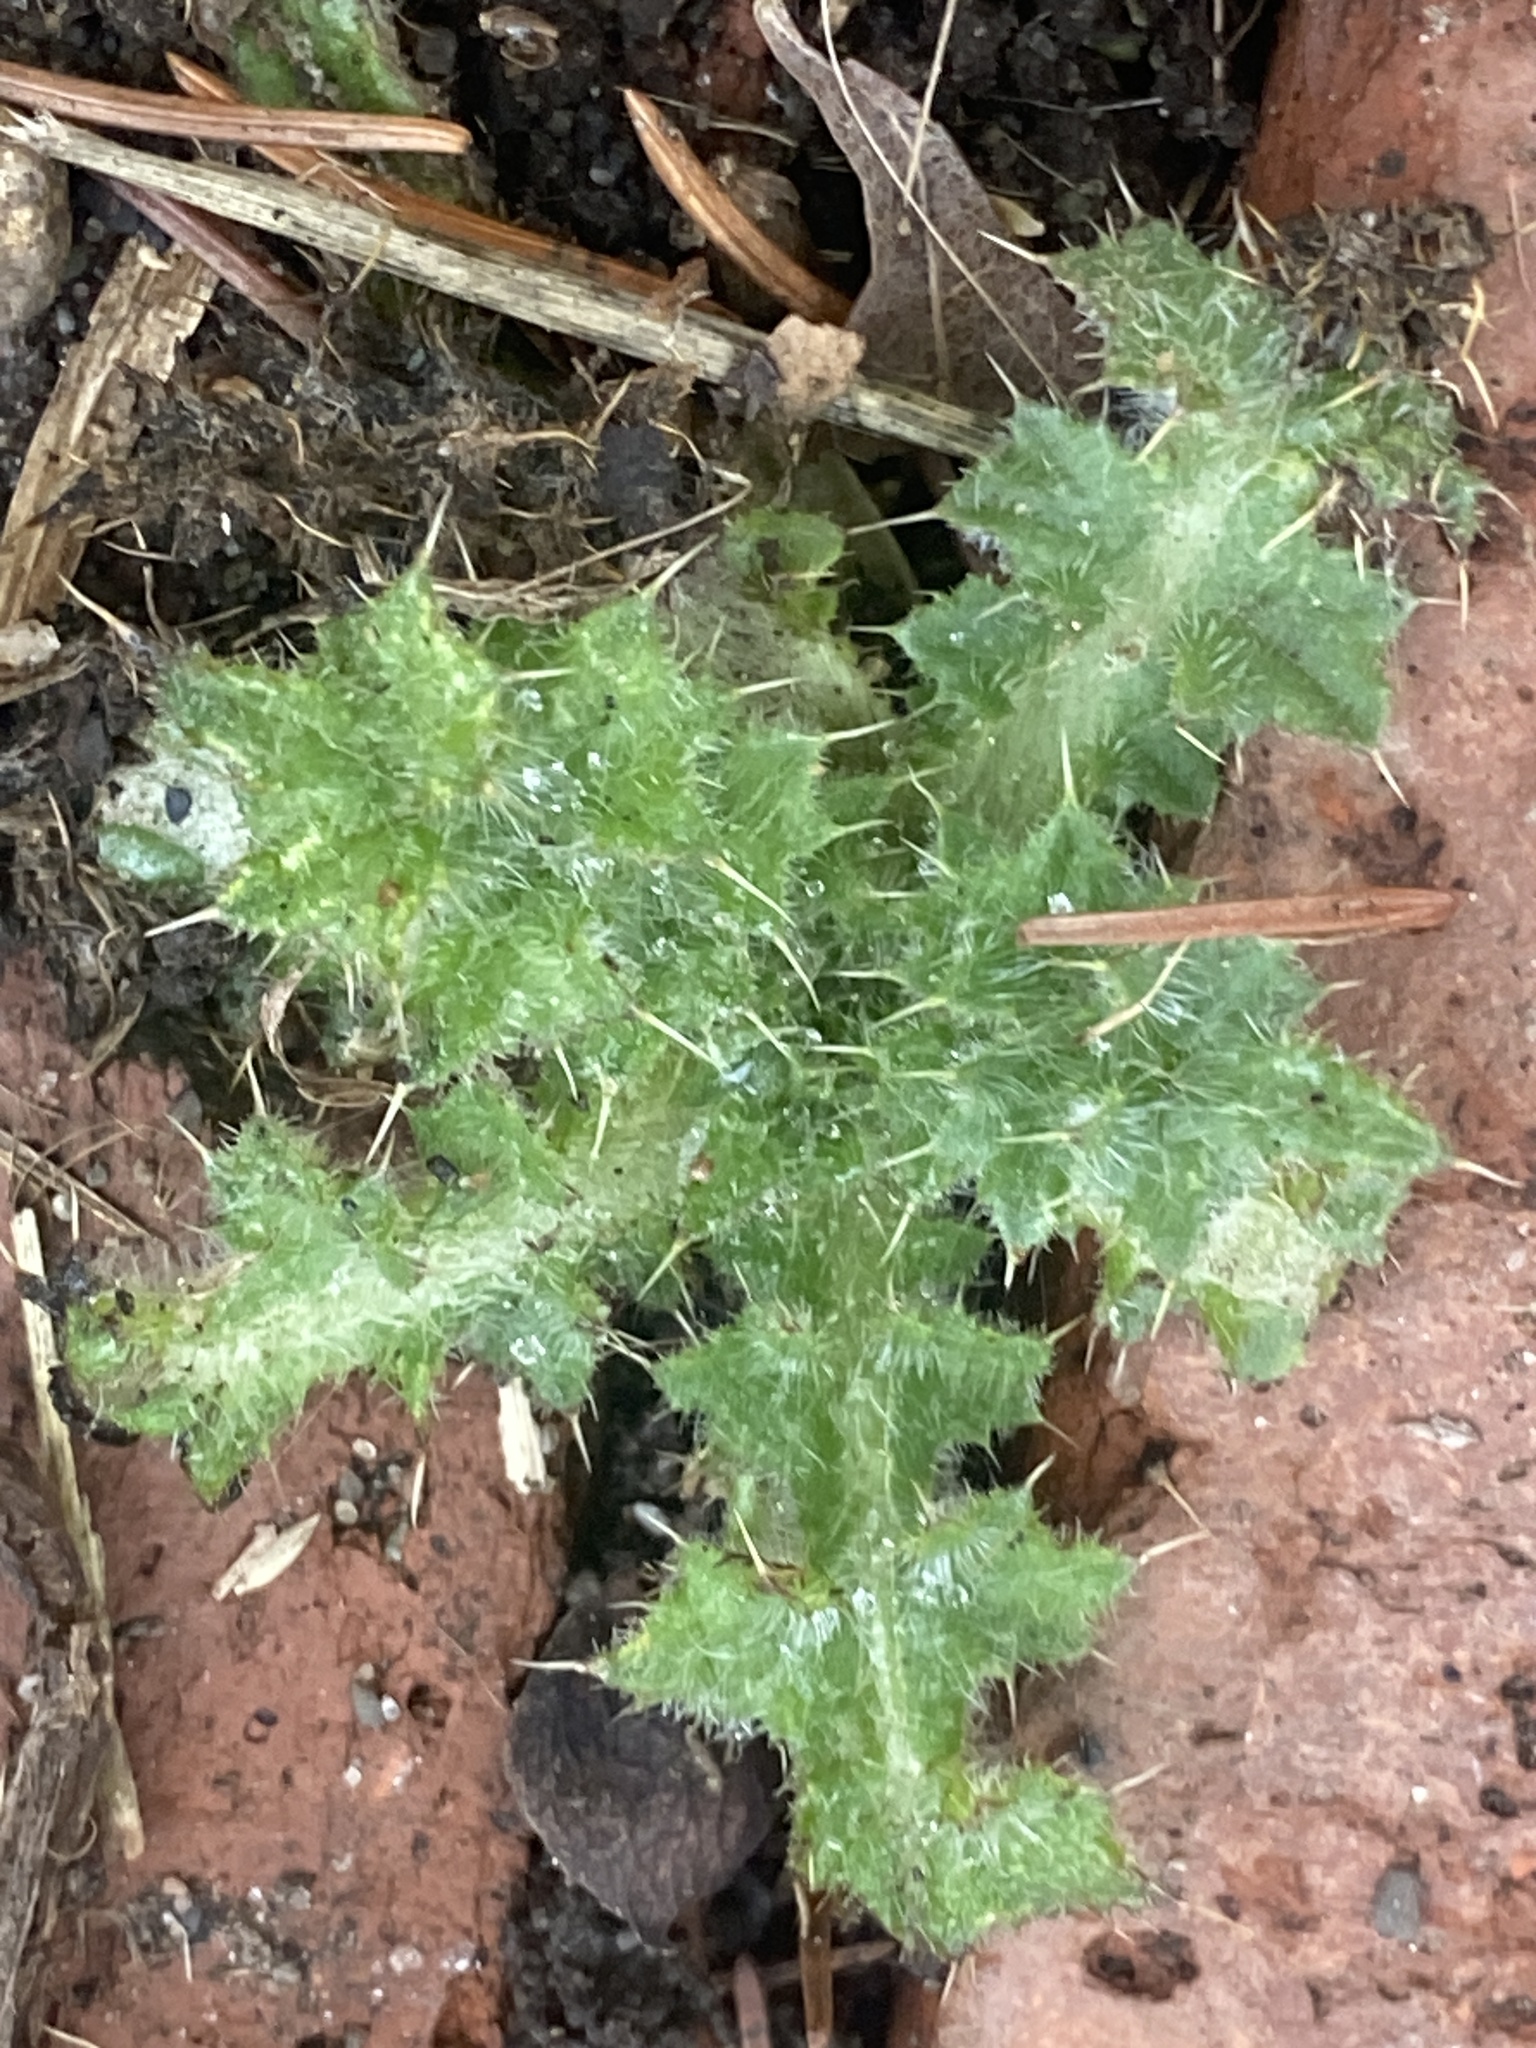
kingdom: Plantae
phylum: Tracheophyta
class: Magnoliopsida
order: Asterales
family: Asteraceae
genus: Cirsium
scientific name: Cirsium vulgare
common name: Bull thistle
